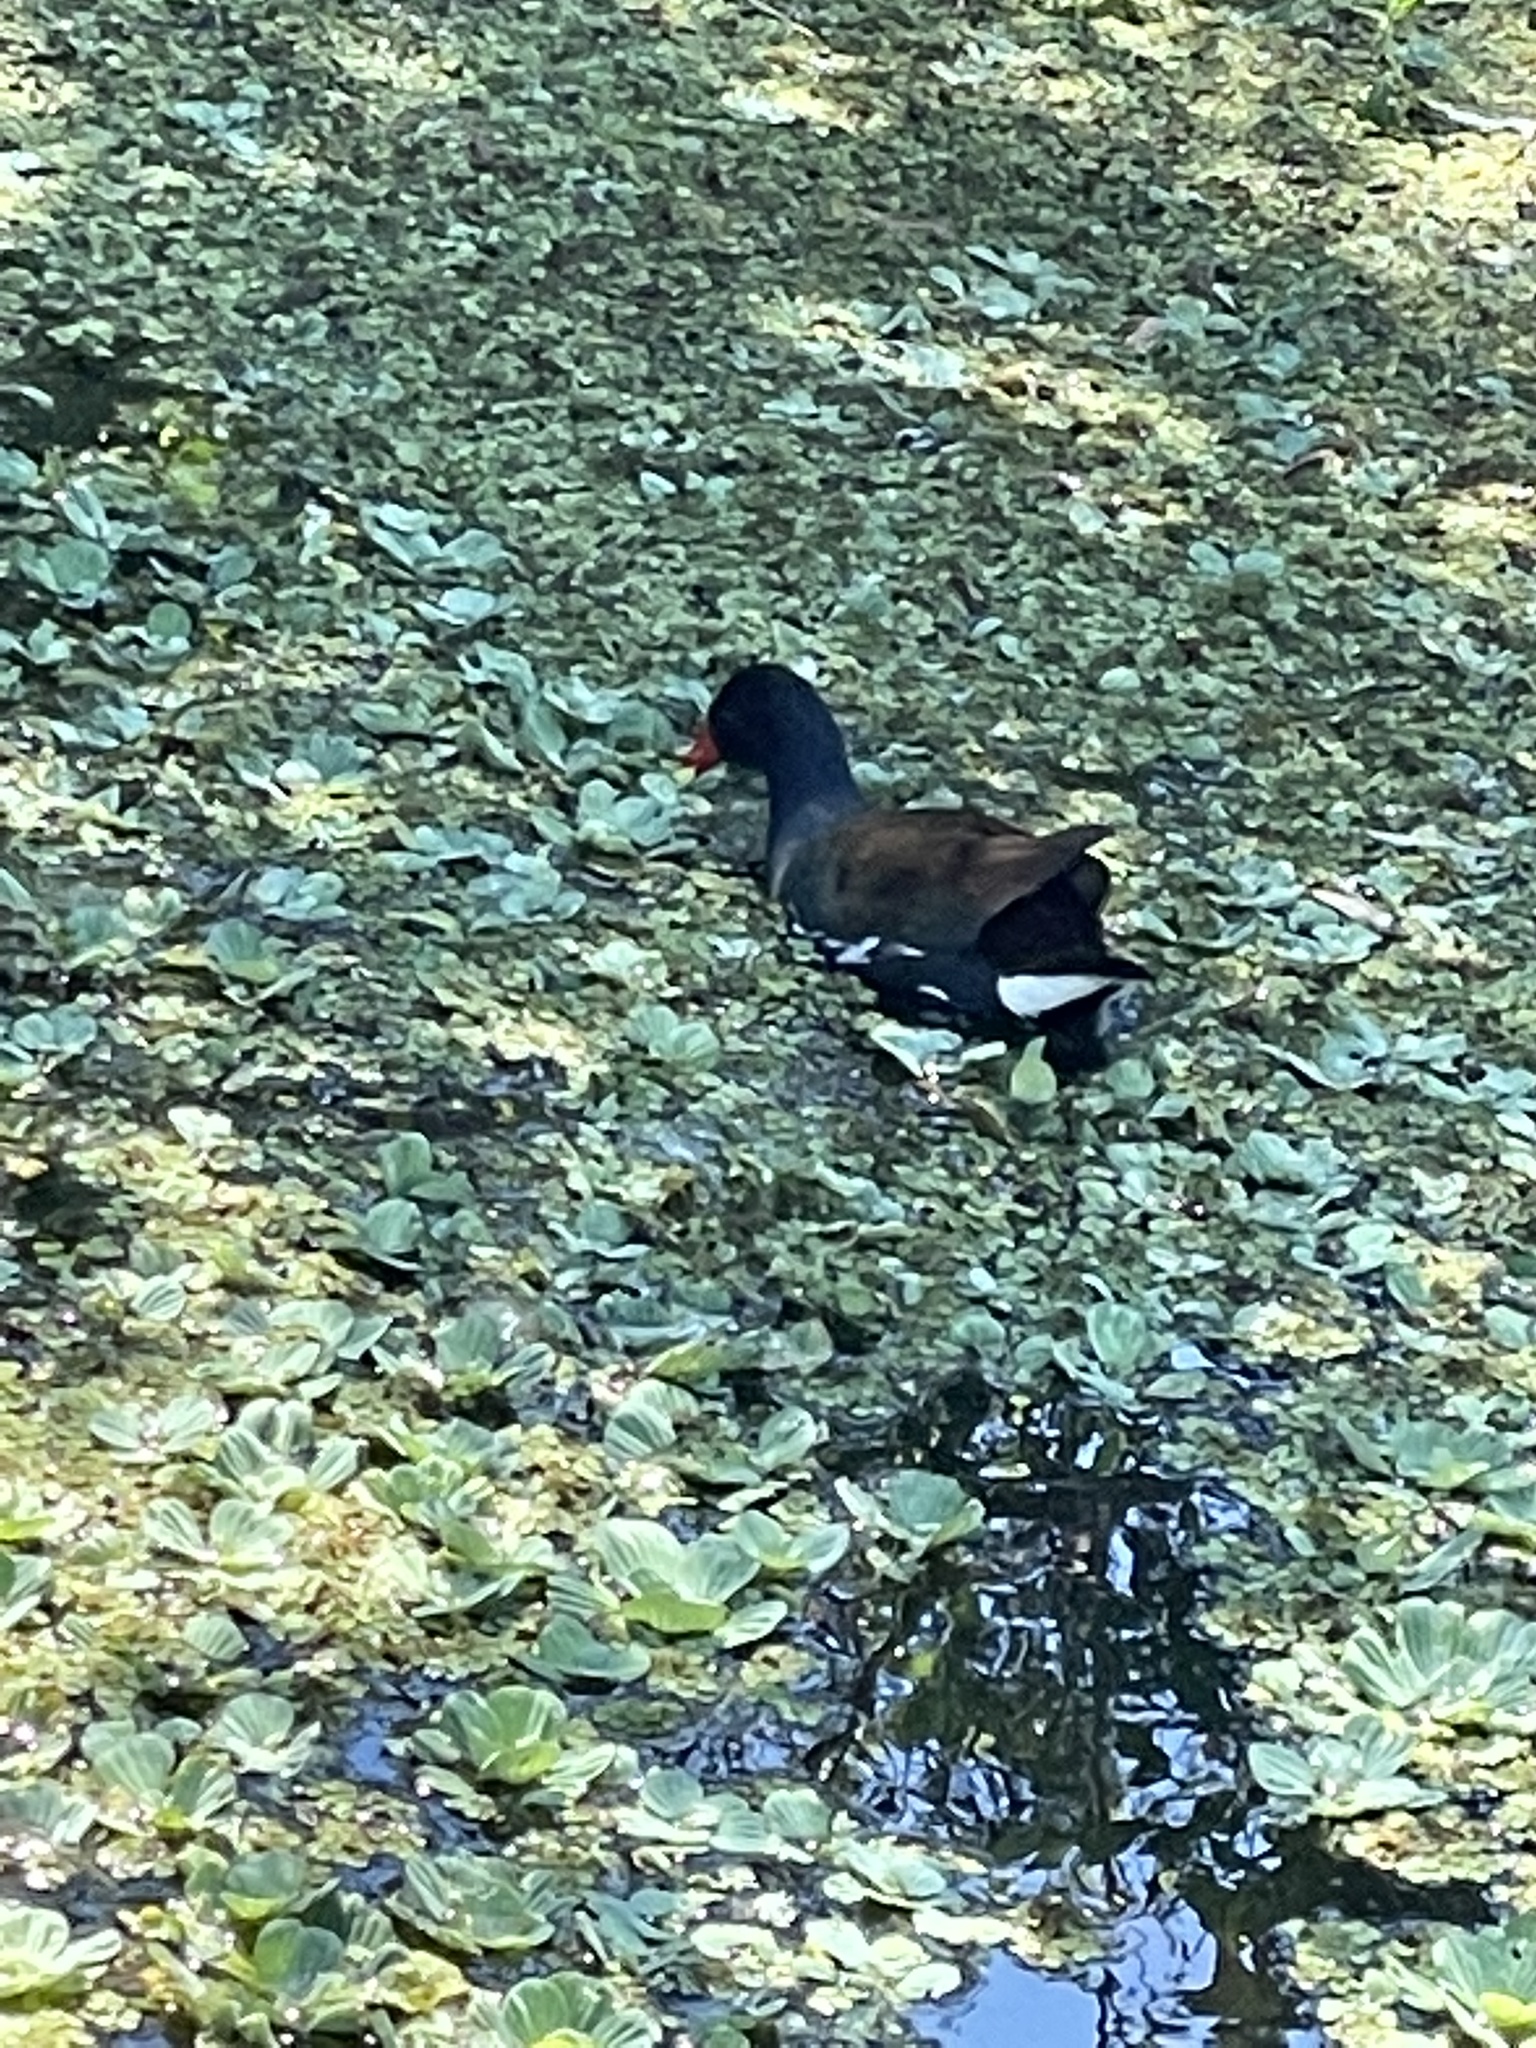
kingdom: Animalia
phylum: Chordata
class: Aves
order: Gruiformes
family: Rallidae
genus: Gallinula
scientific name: Gallinula chloropus
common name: Common moorhen
